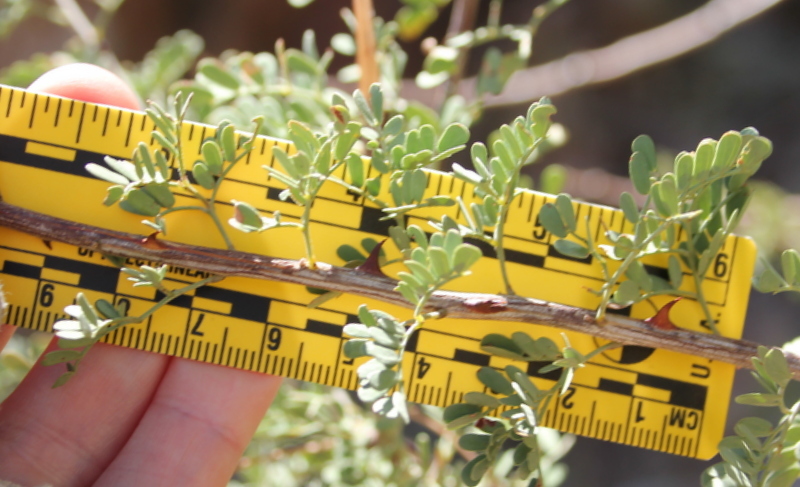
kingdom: Plantae
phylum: Tracheophyta
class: Magnoliopsida
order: Fabales
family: Fabaceae
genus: Senegalia
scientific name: Senegalia greggii
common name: Texas-mimosa
